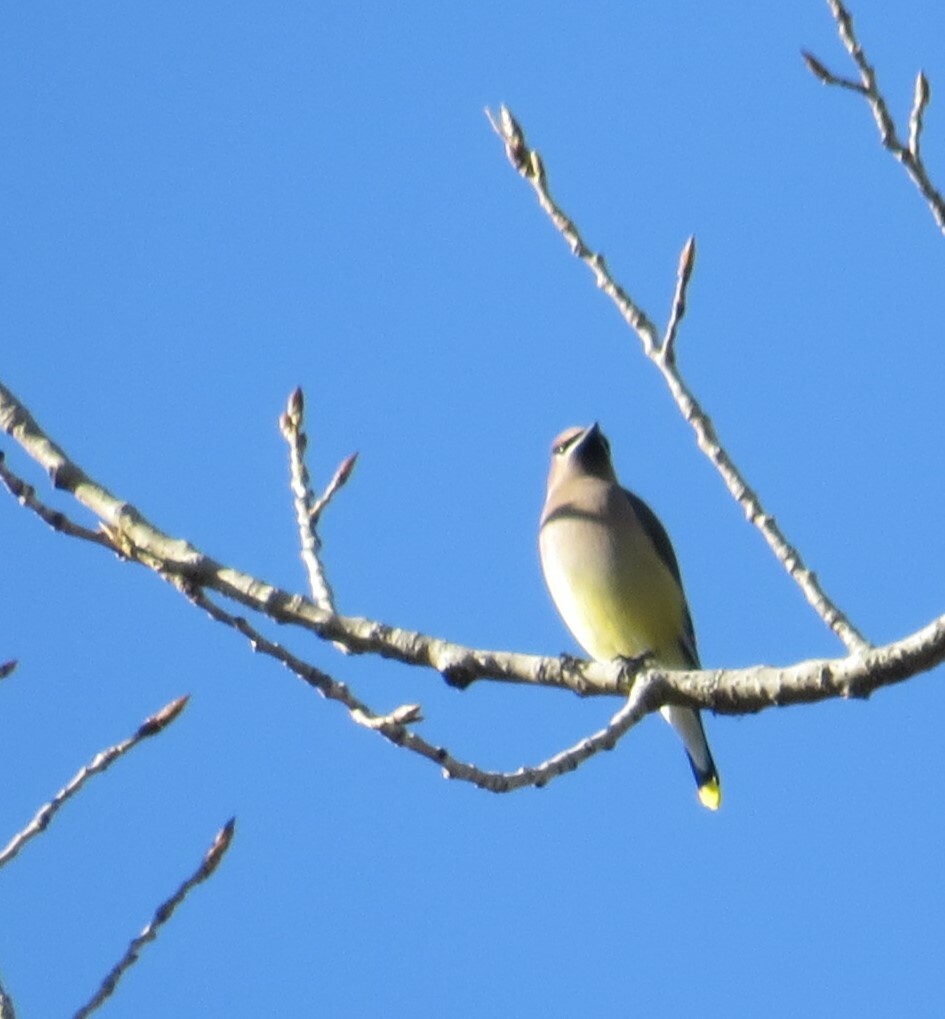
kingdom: Animalia
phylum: Chordata
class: Aves
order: Passeriformes
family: Bombycillidae
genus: Bombycilla
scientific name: Bombycilla cedrorum
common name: Cedar waxwing
